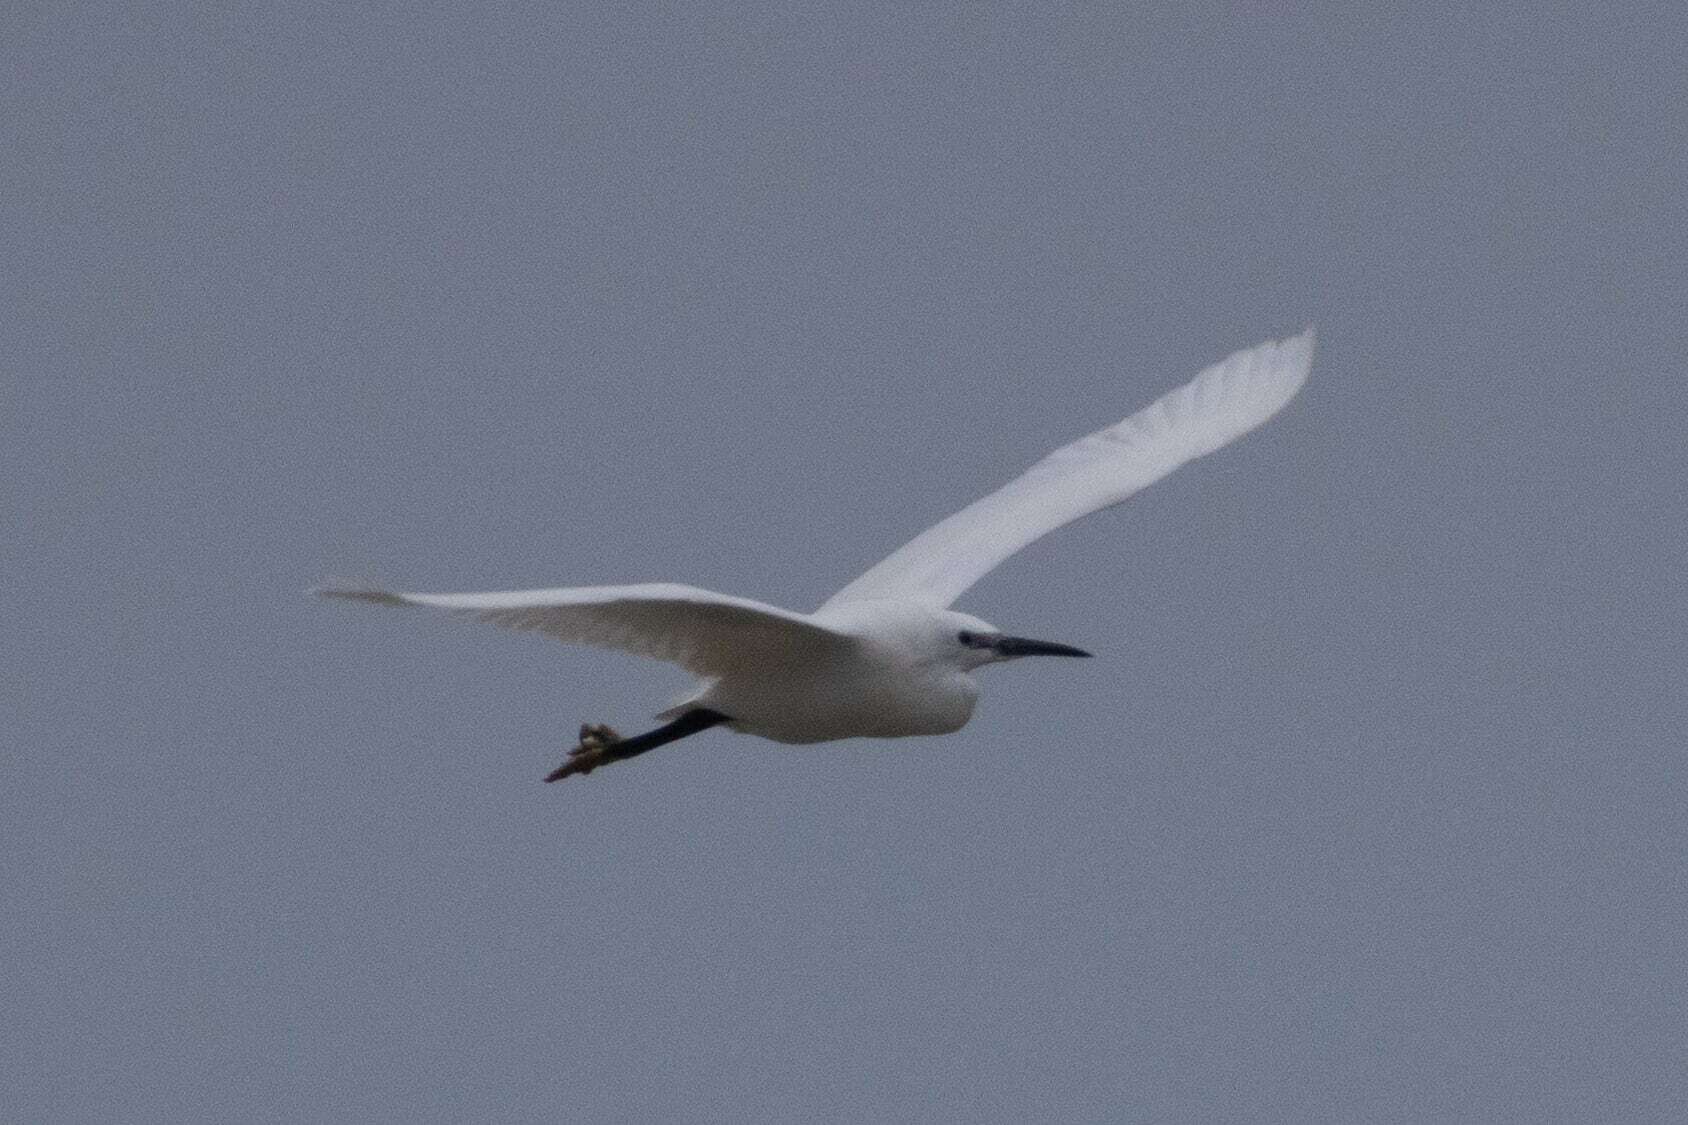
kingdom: Animalia
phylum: Chordata
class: Aves
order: Pelecaniformes
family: Ardeidae
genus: Egretta
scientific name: Egretta garzetta
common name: Little egret
